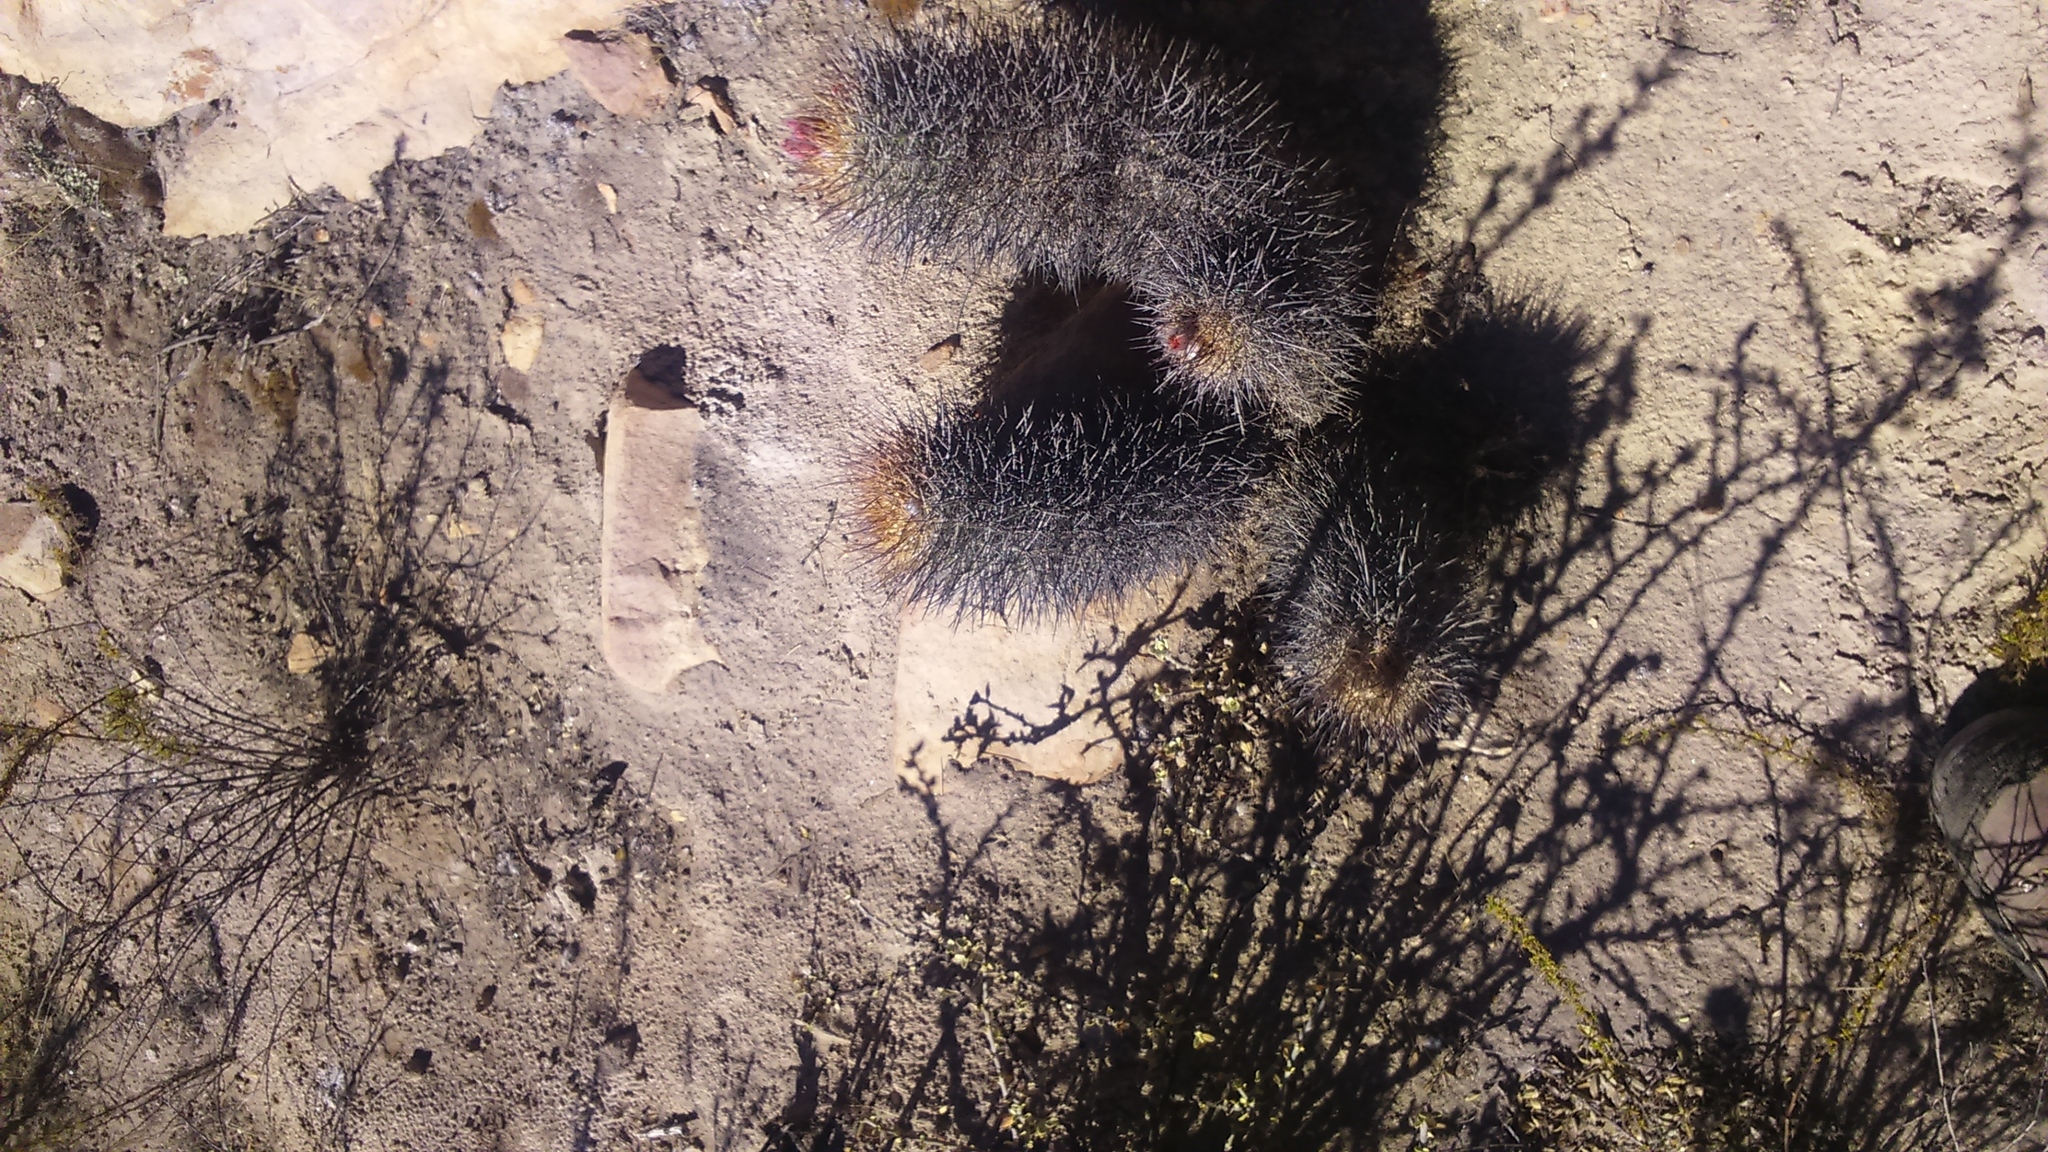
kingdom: Plantae
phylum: Tracheophyta
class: Magnoliopsida
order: Caryophyllales
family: Cactaceae
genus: Oreocereus
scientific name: Oreocereus hempelianus
